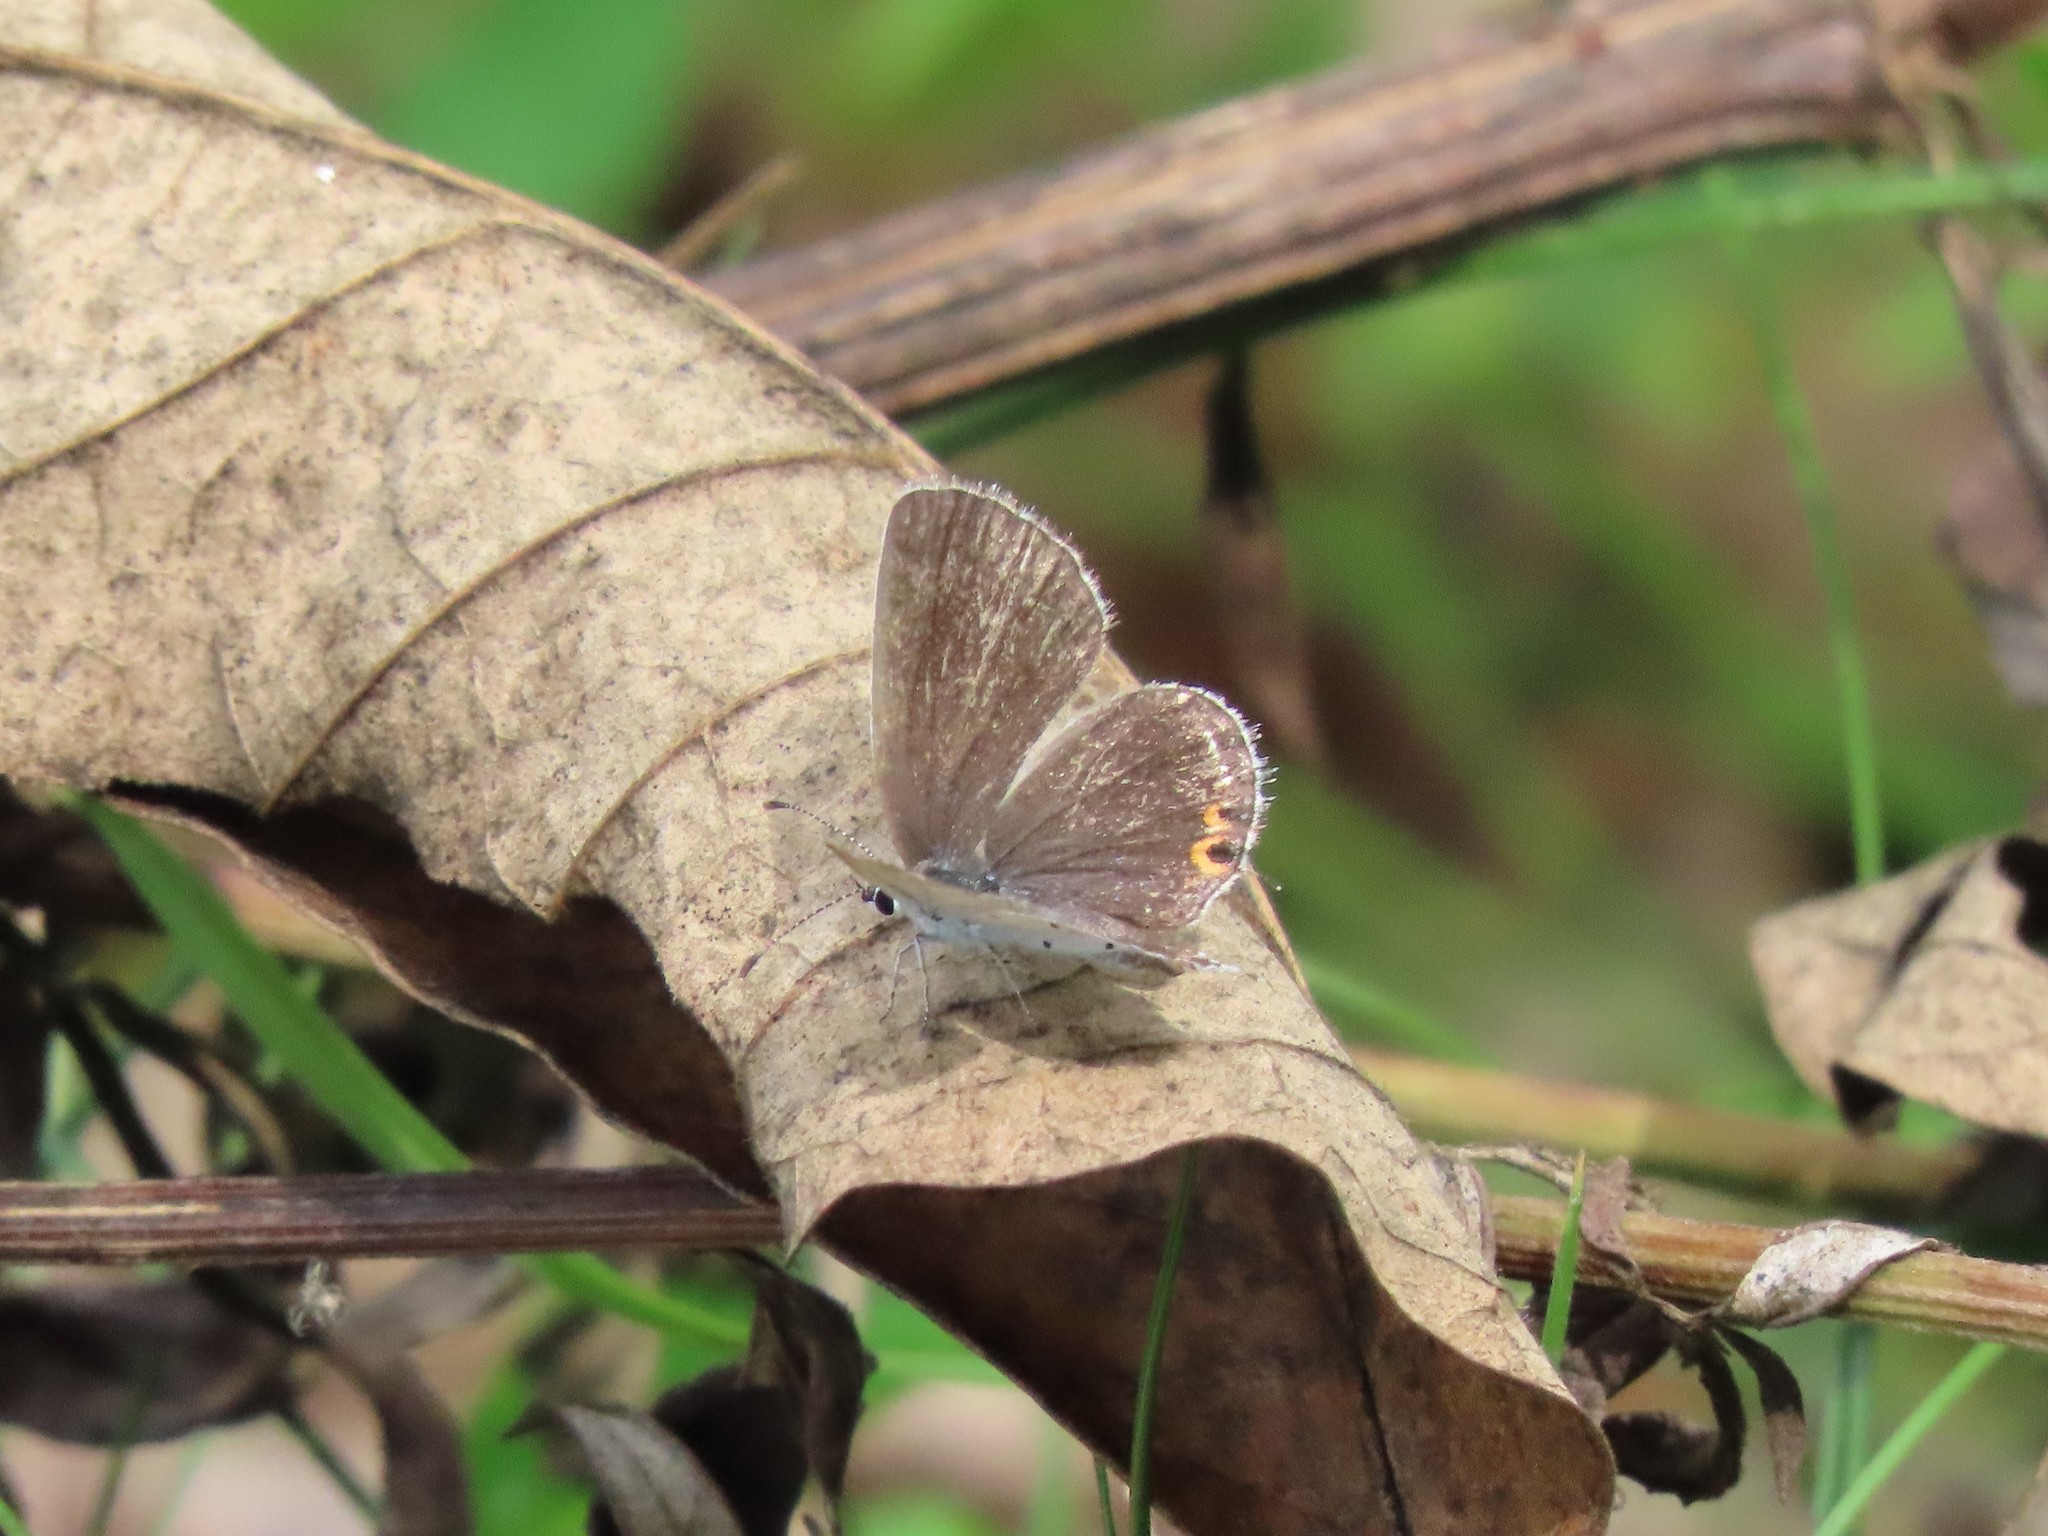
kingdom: Animalia
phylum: Arthropoda
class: Insecta
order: Lepidoptera
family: Lycaenidae
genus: Elkalyce
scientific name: Elkalyce comyntas
